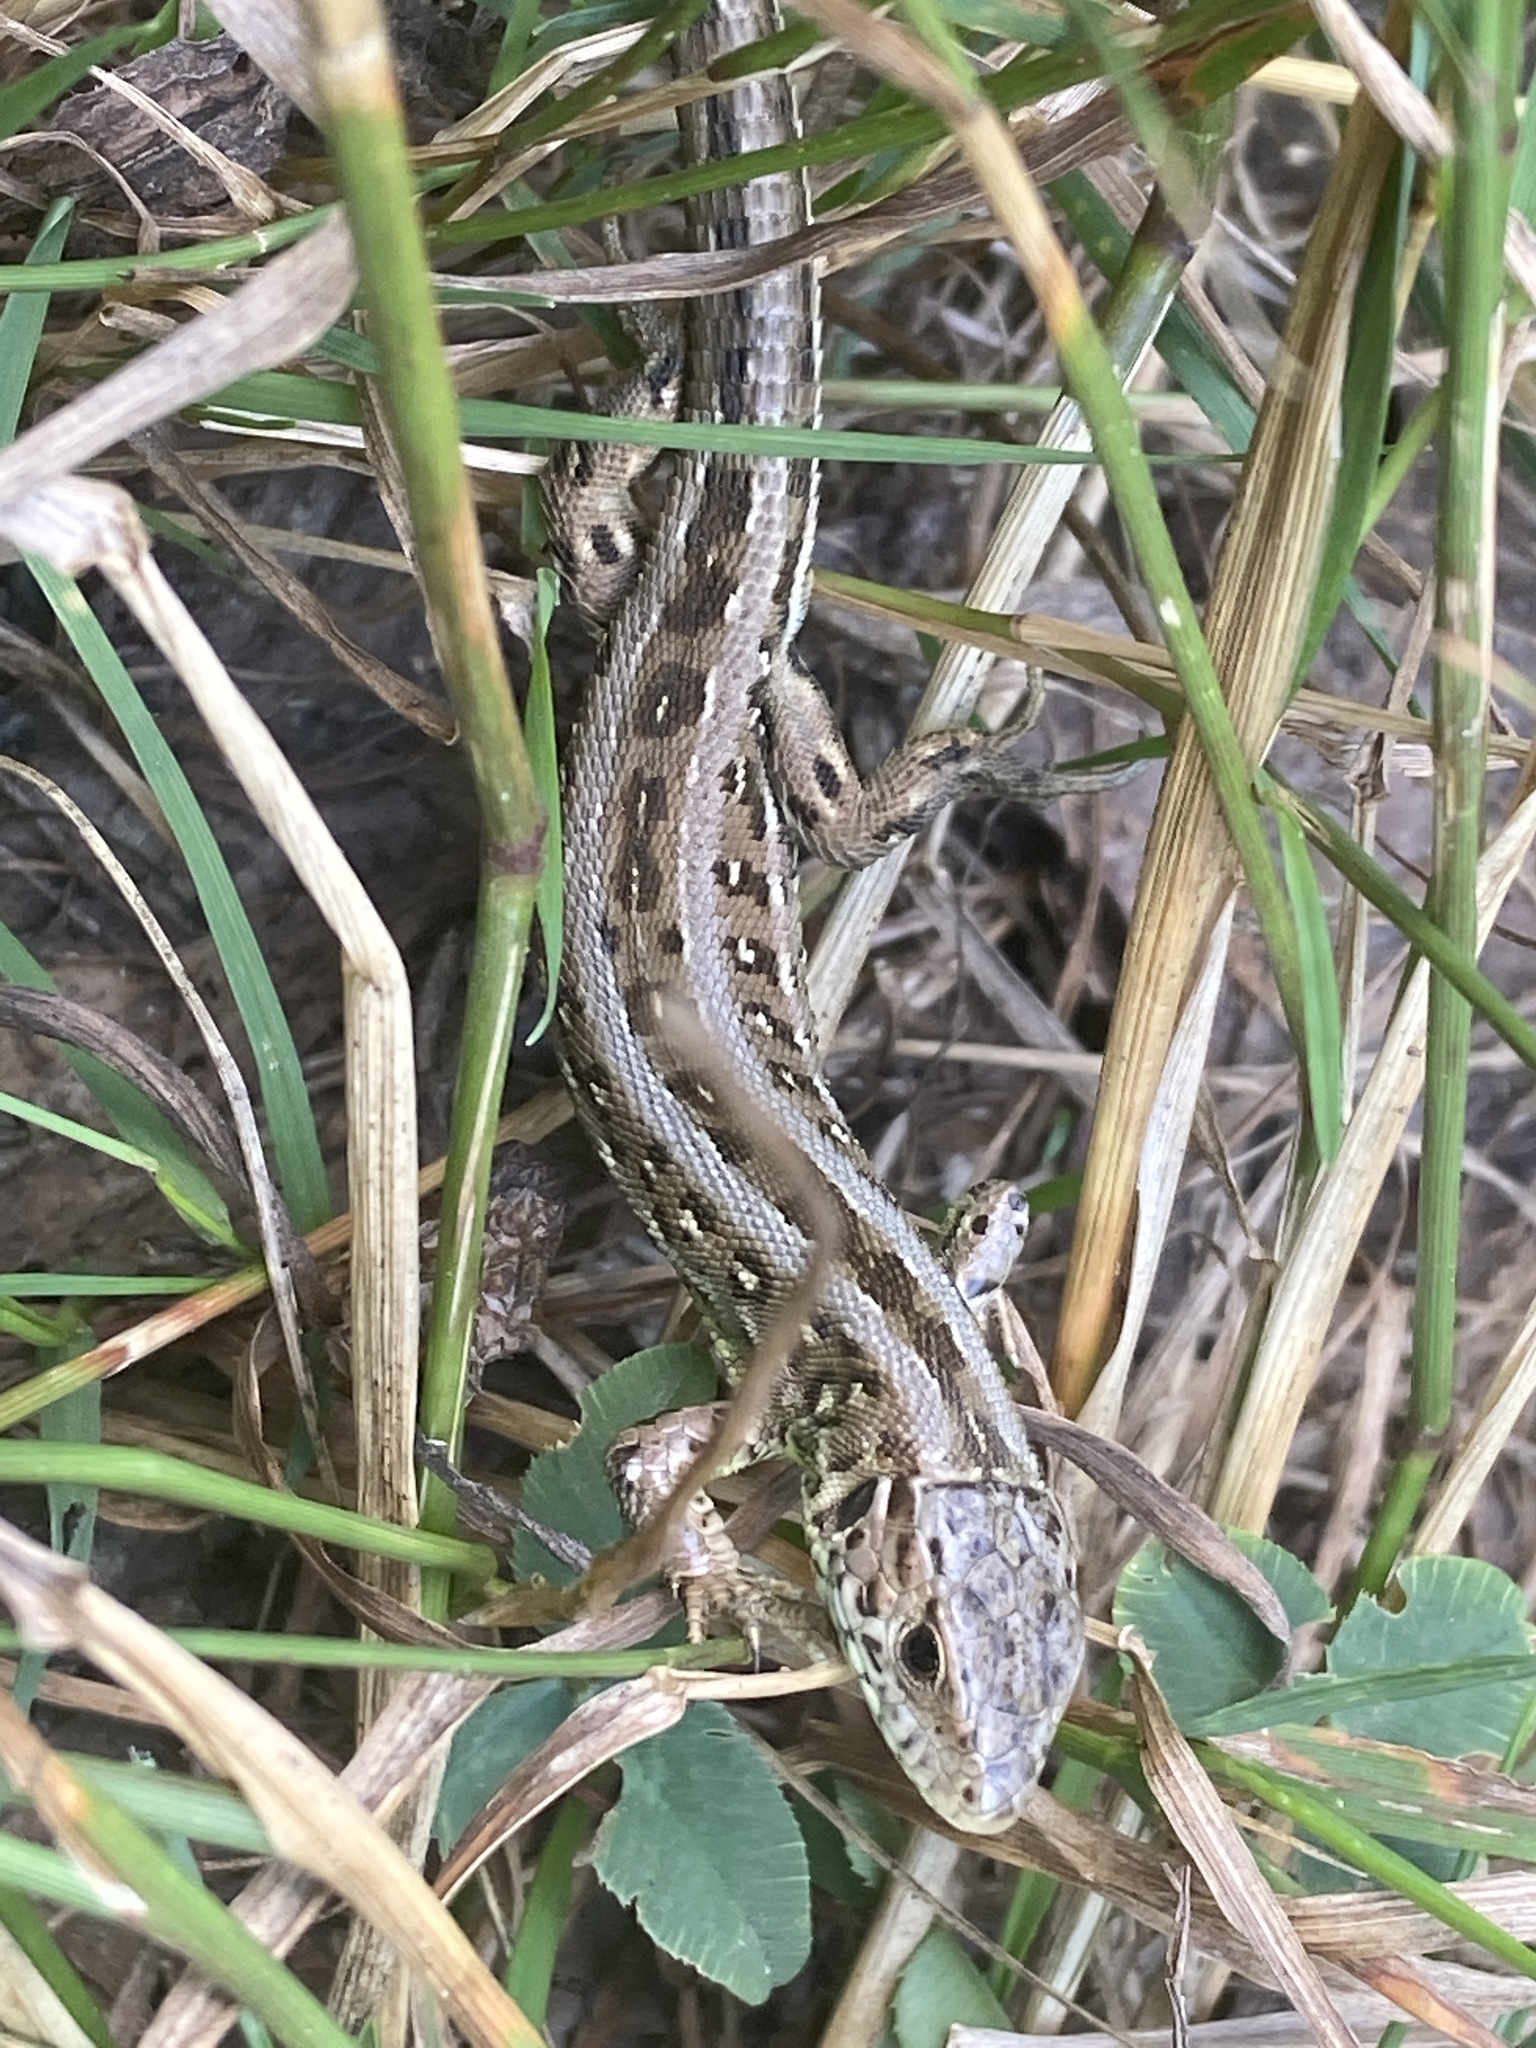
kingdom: Animalia
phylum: Chordata
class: Squamata
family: Lacertidae
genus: Lacerta
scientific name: Lacerta agilis
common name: Sand lizard
